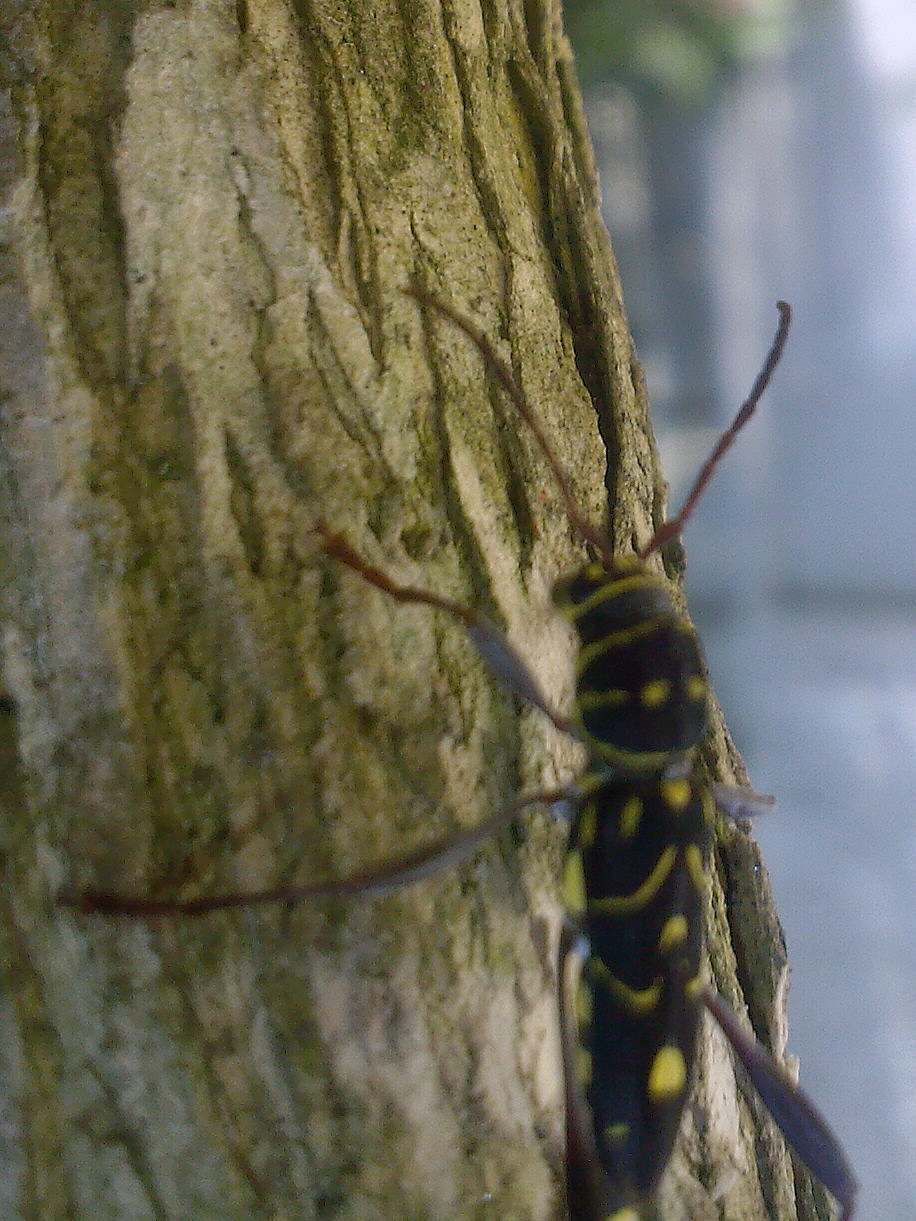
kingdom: Animalia
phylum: Arthropoda
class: Insecta
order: Coleoptera
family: Cerambycidae
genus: Cotyclytus
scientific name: Cotyclytus curvatus
